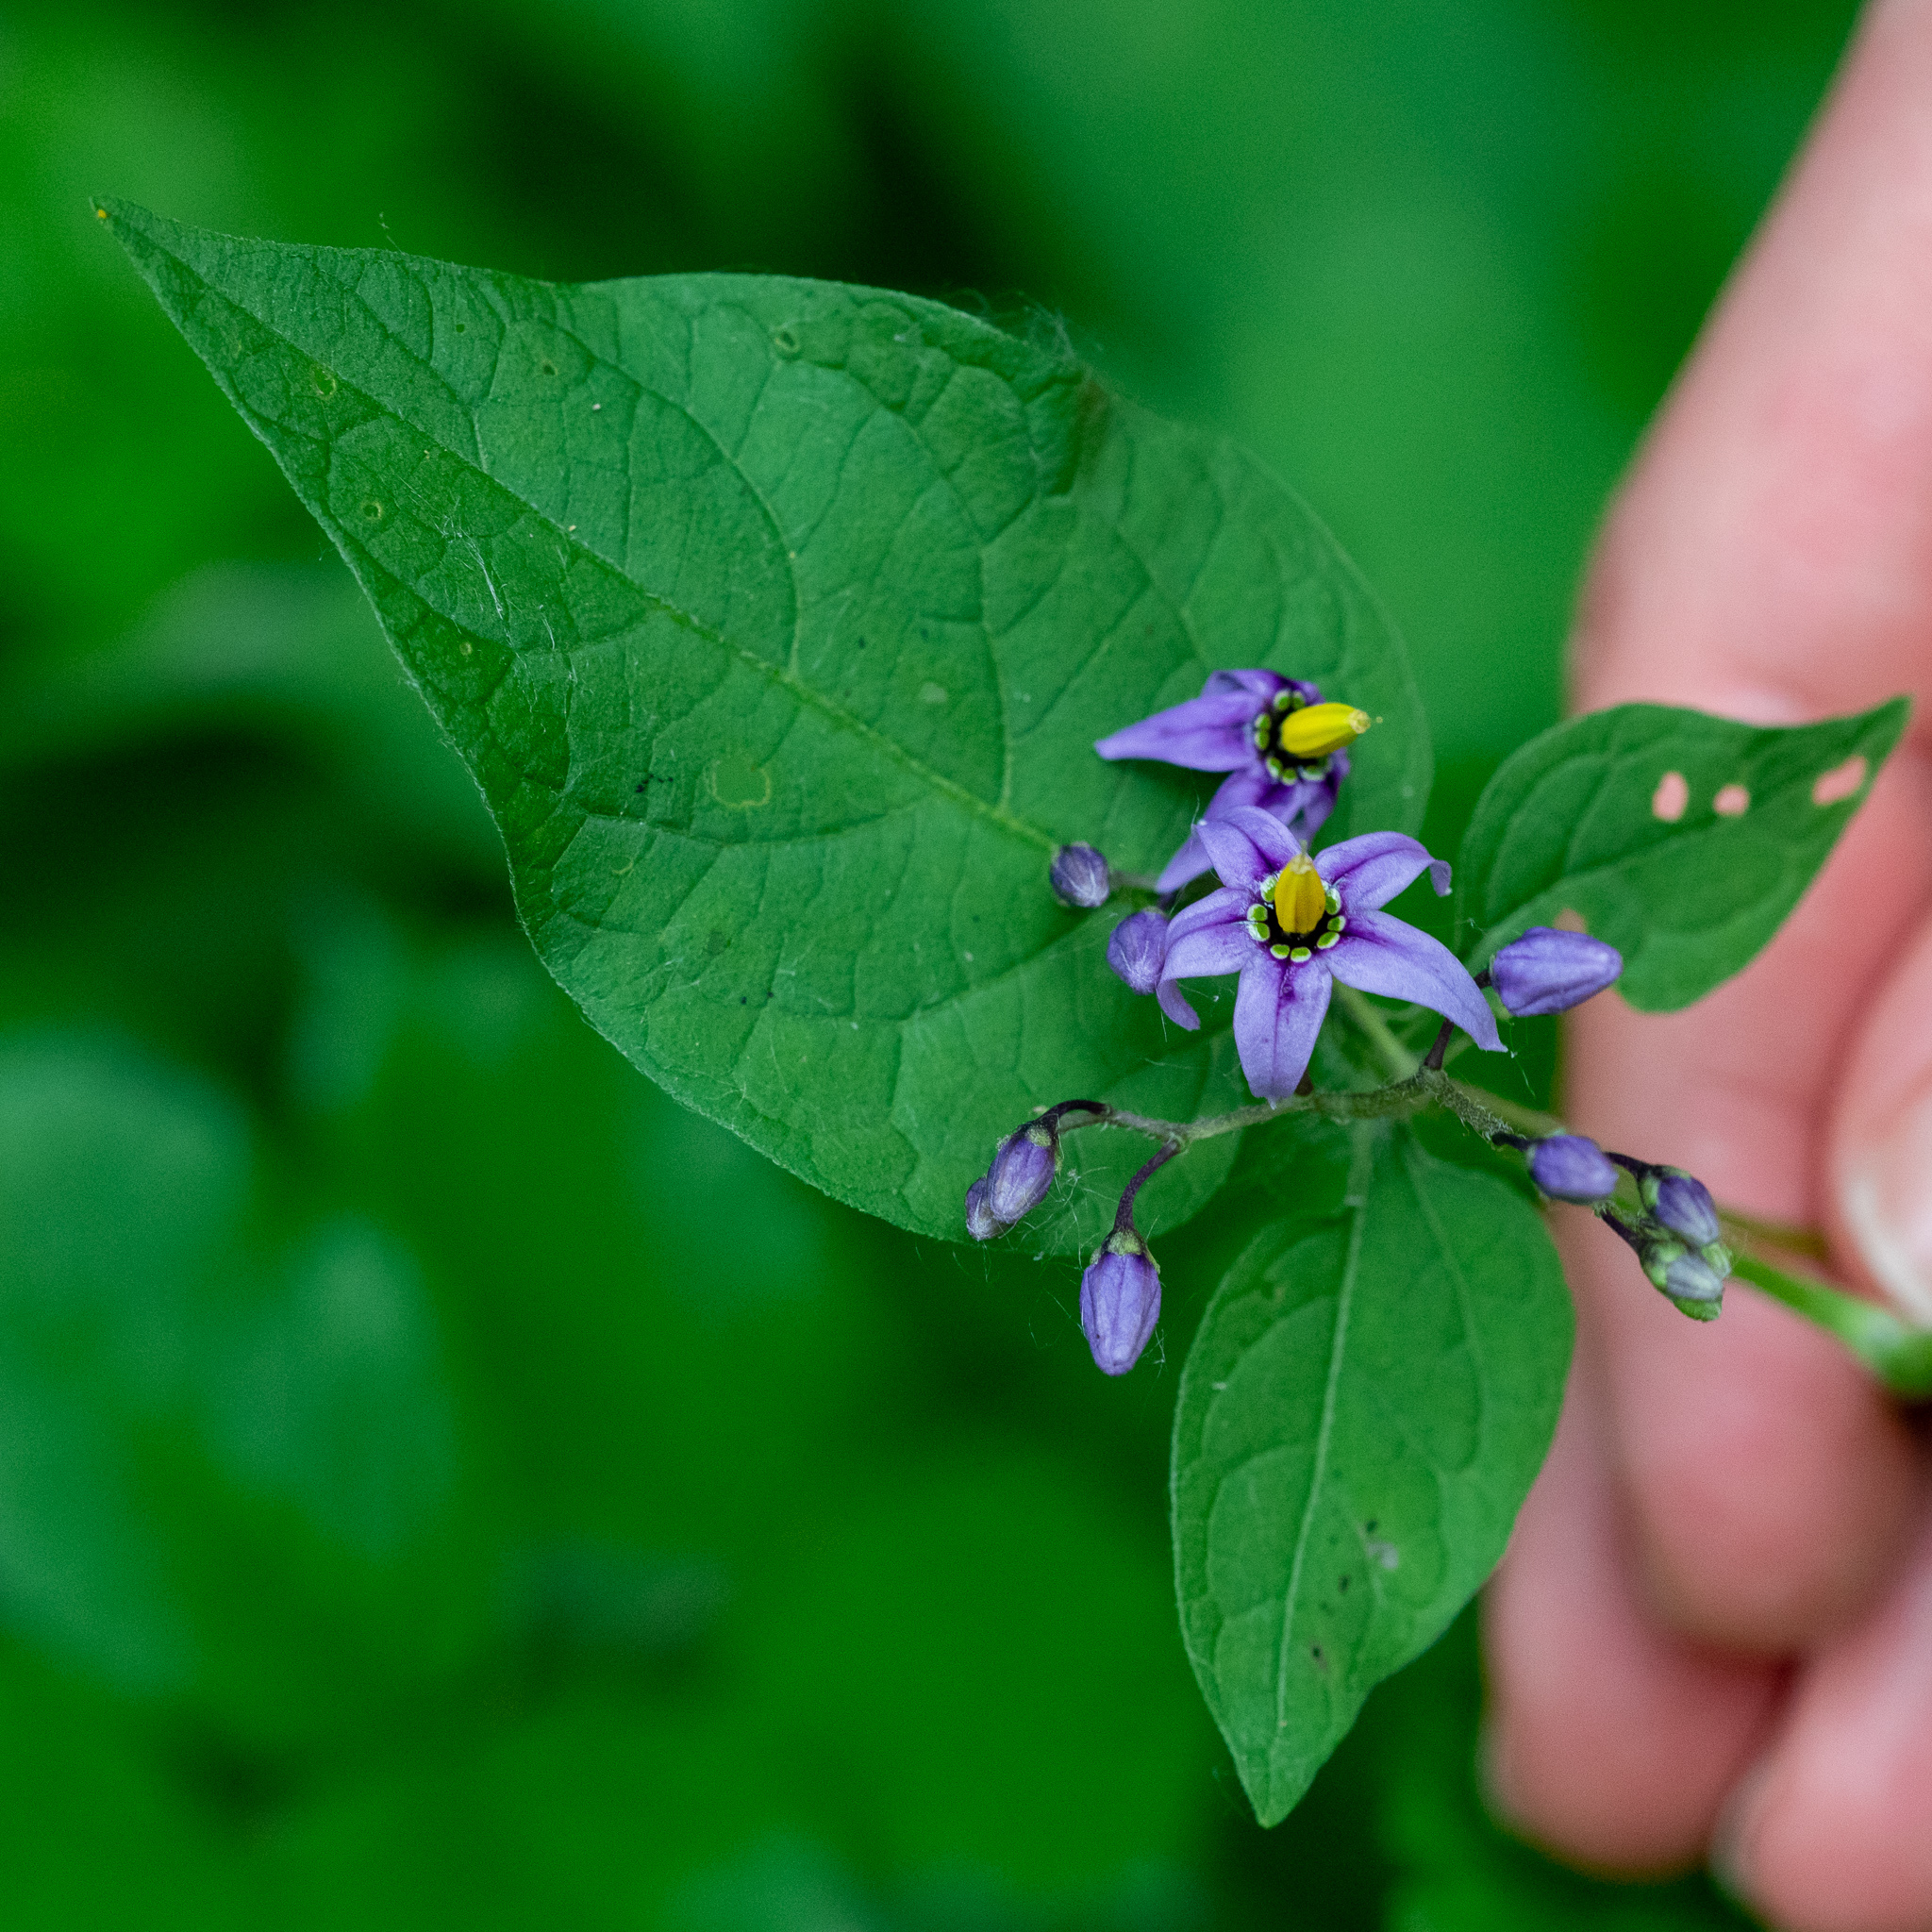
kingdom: Plantae
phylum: Tracheophyta
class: Magnoliopsida
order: Solanales
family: Solanaceae
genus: Solanum
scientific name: Solanum dulcamara
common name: Climbing nightshade
